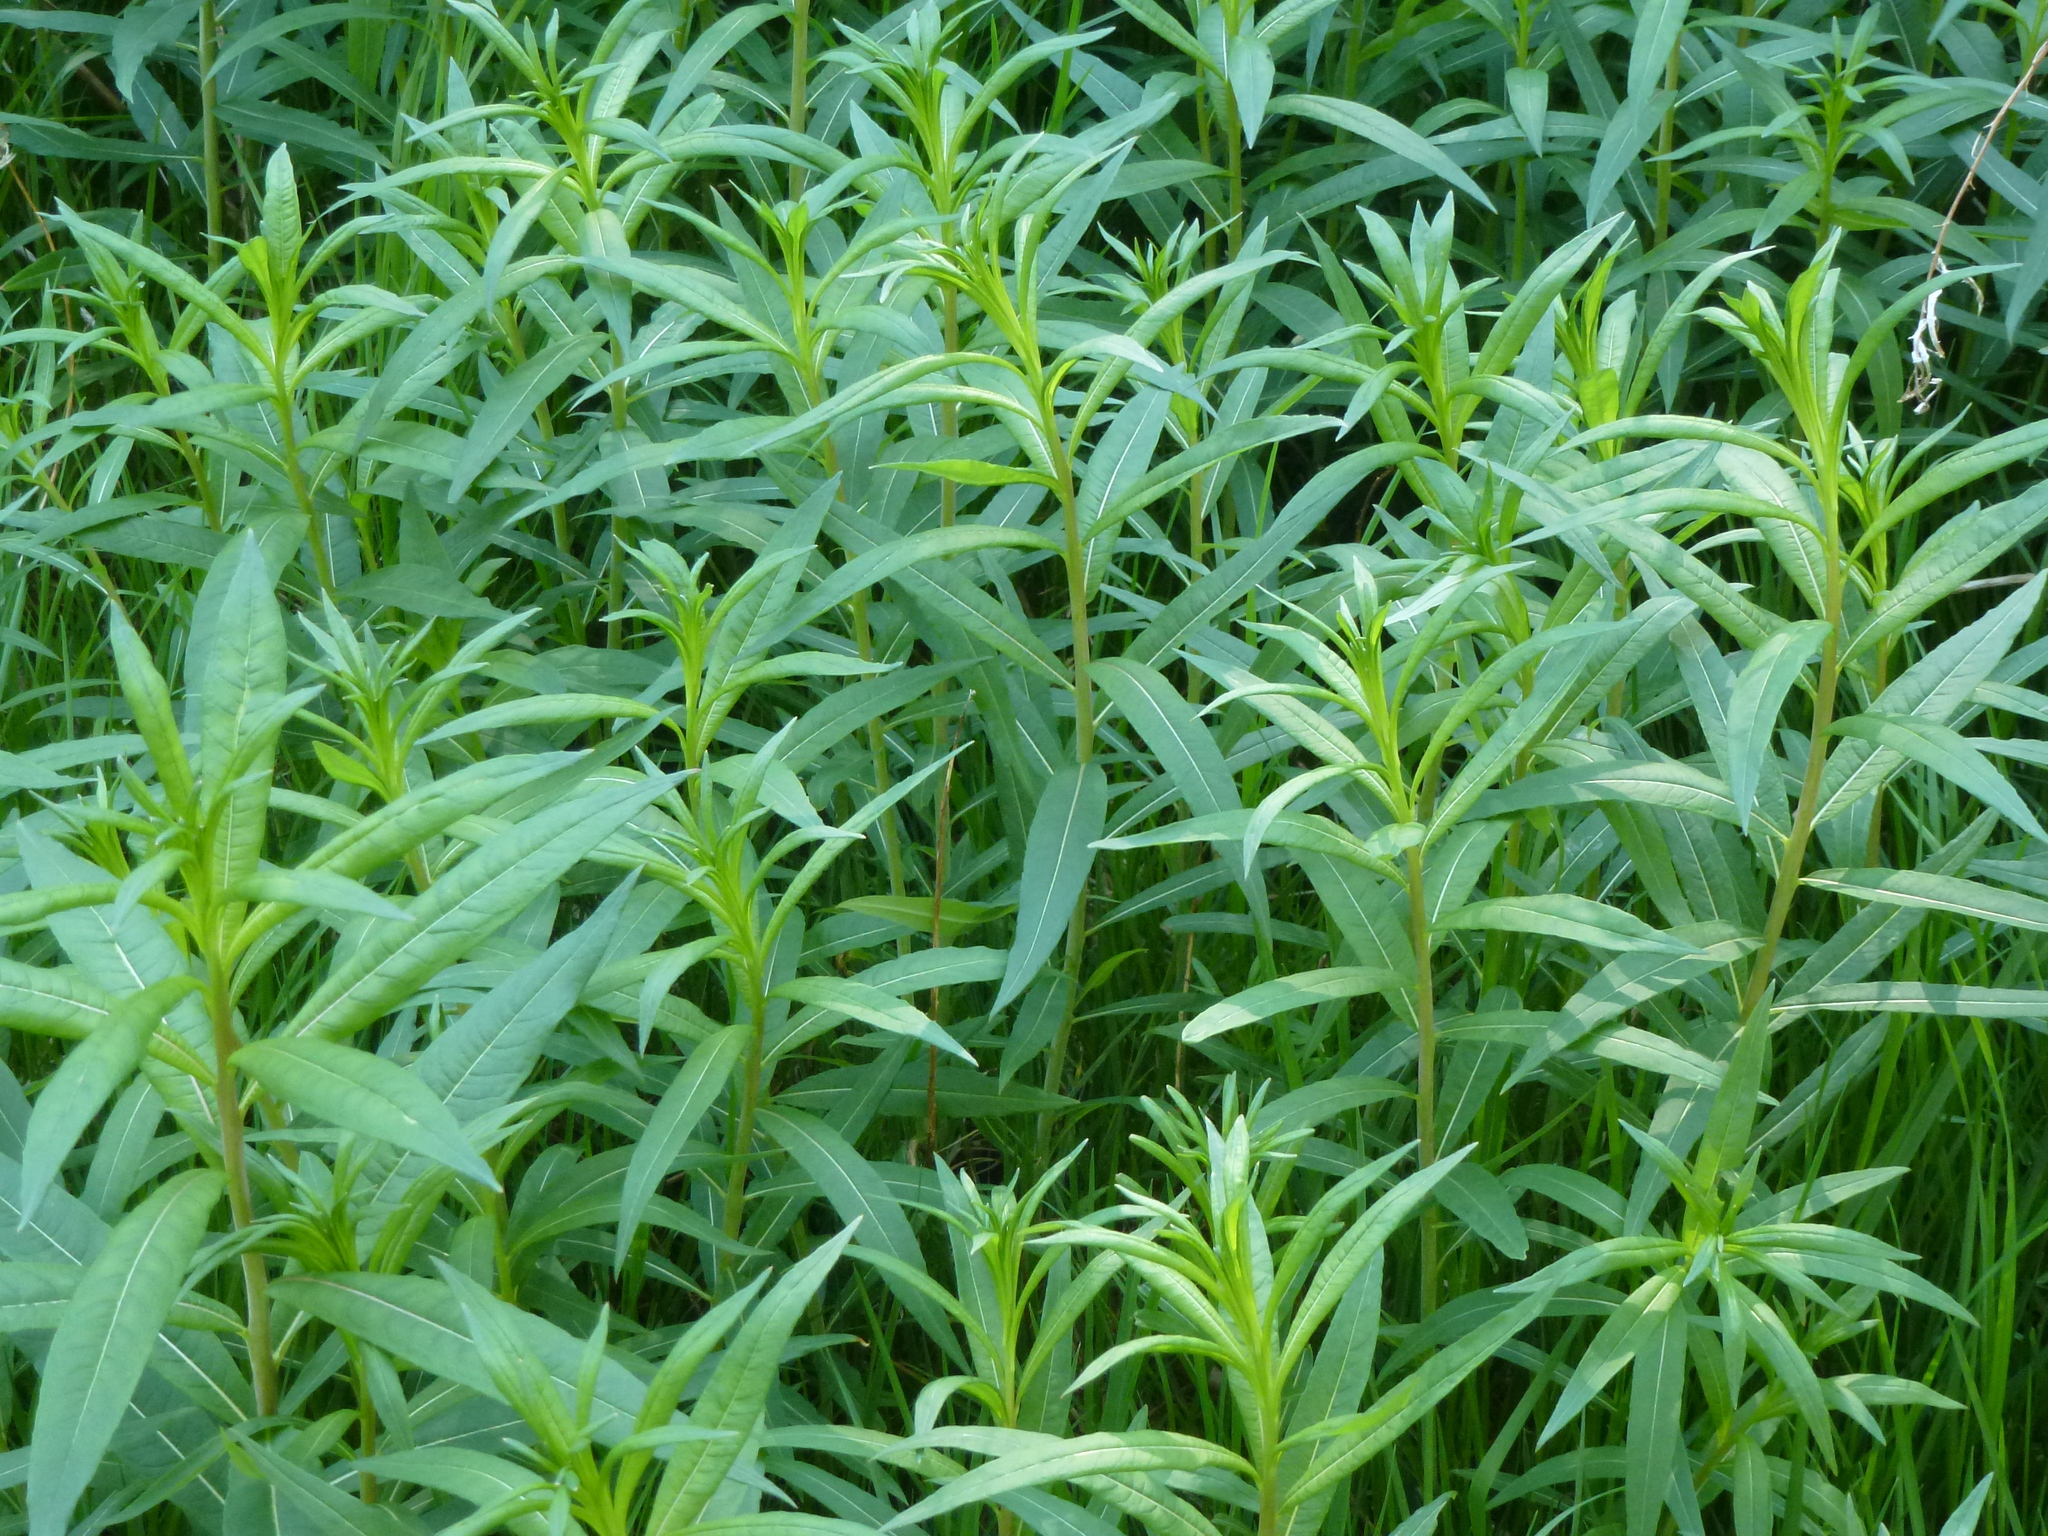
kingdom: Plantae
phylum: Tracheophyta
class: Magnoliopsida
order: Myrtales
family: Onagraceae
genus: Chamaenerion
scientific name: Chamaenerion angustifolium
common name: Fireweed
